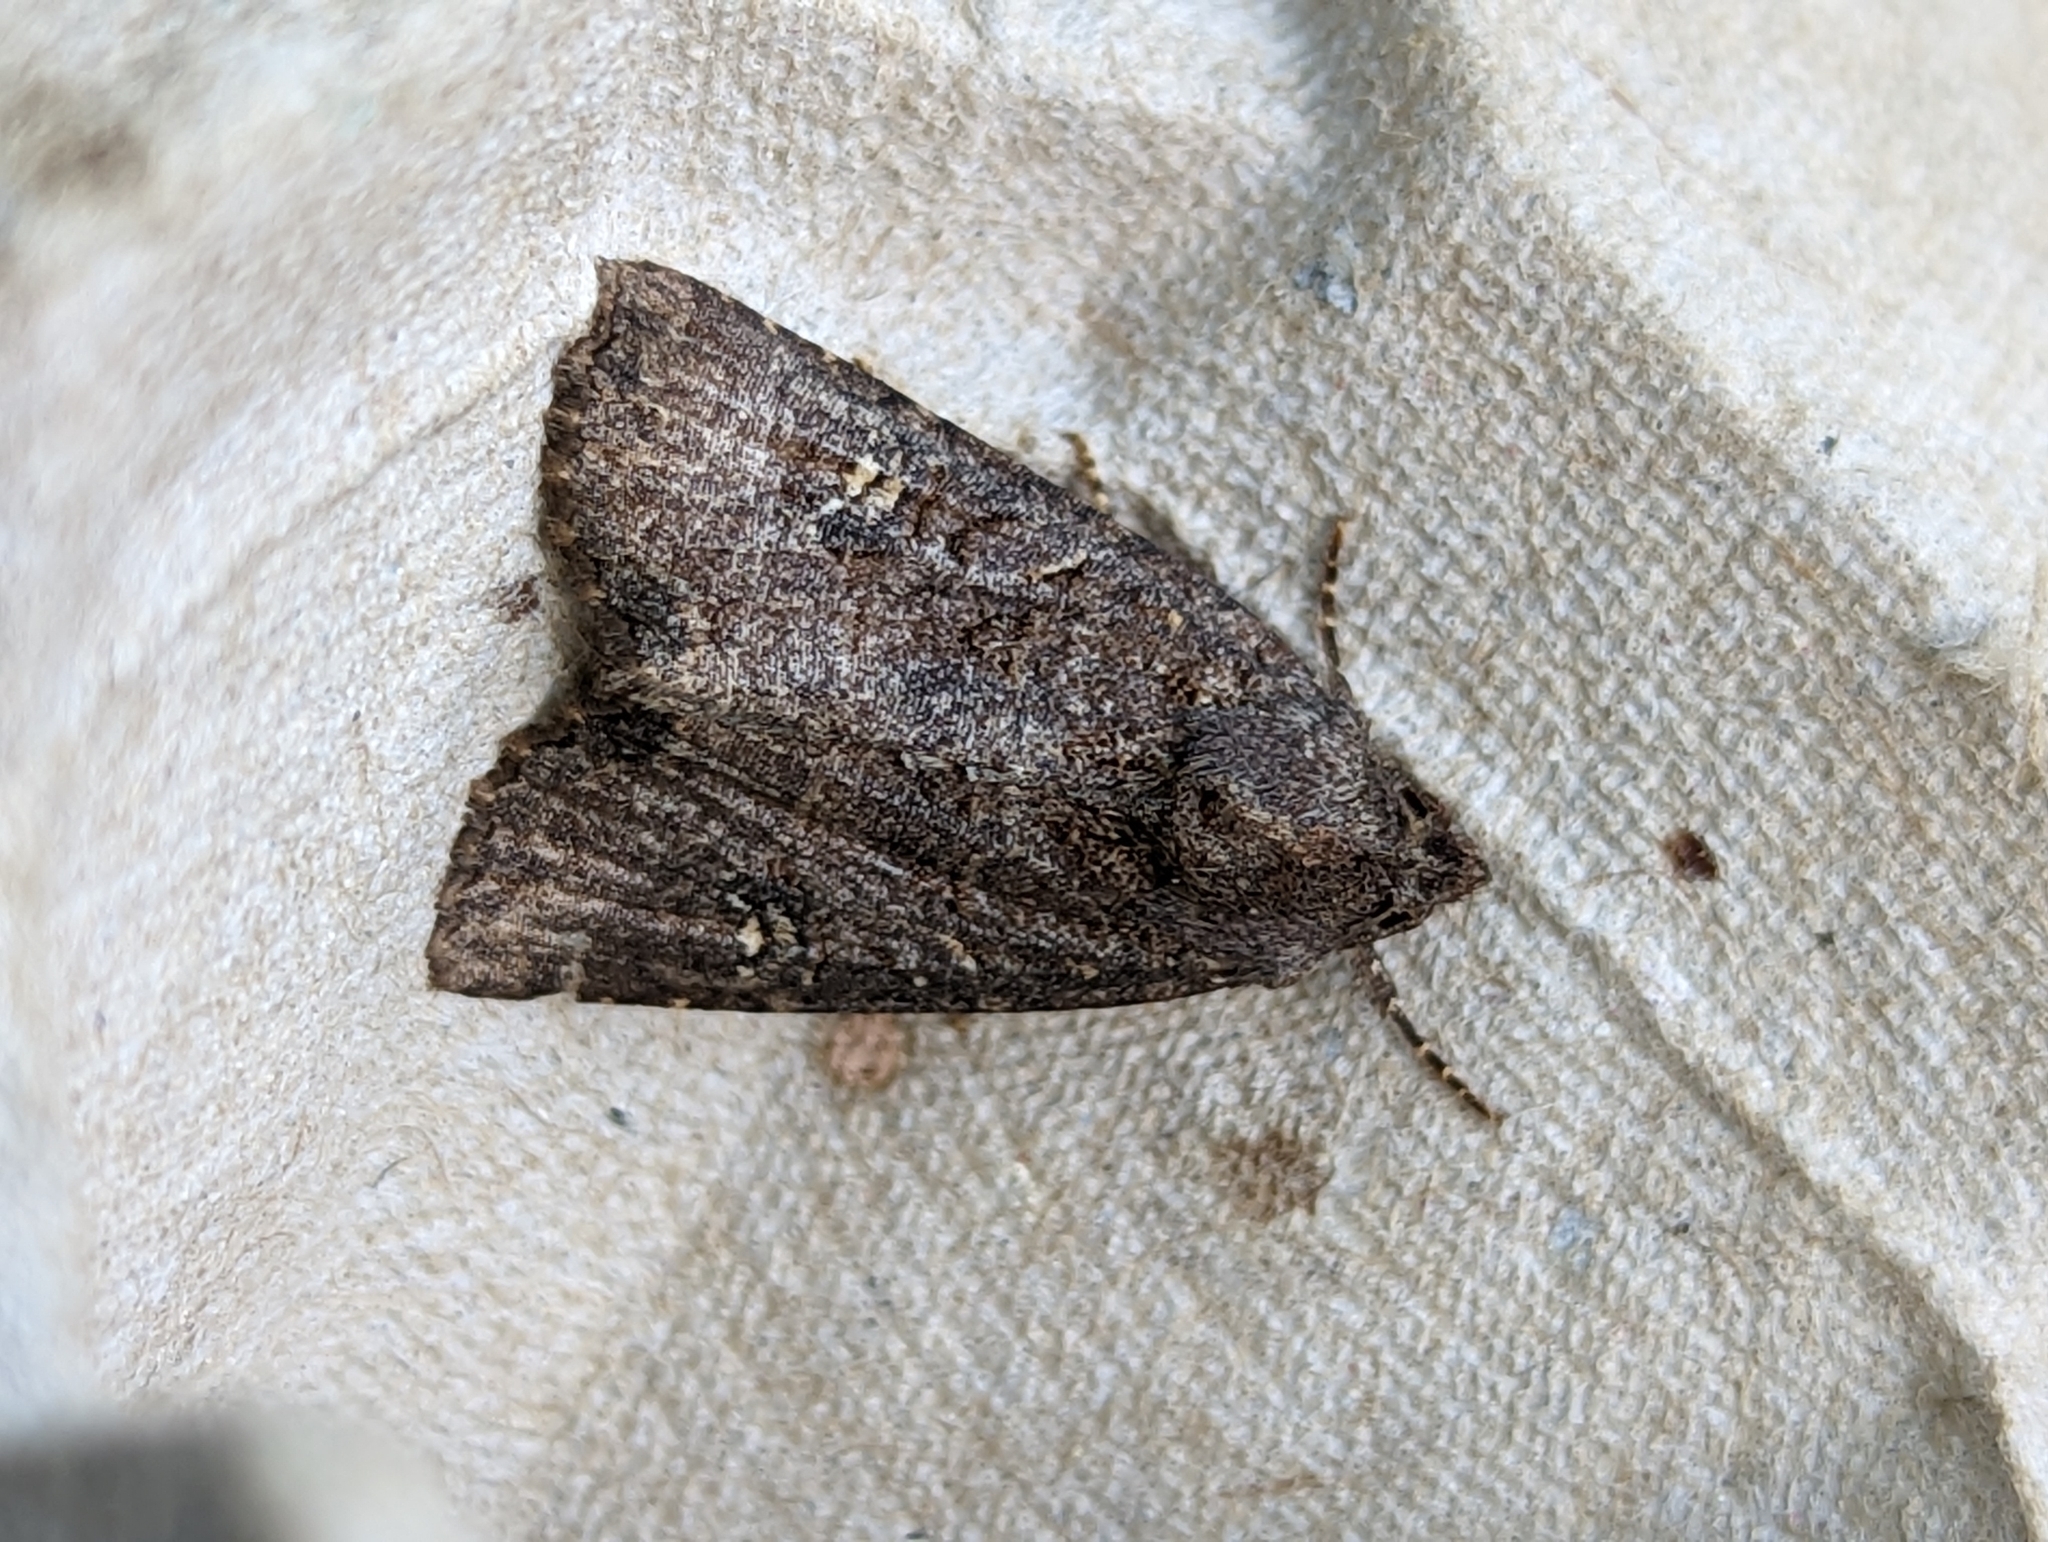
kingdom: Animalia
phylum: Arthropoda
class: Insecta
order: Lepidoptera
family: Noctuidae
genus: Mesapamea
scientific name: Mesapamea
